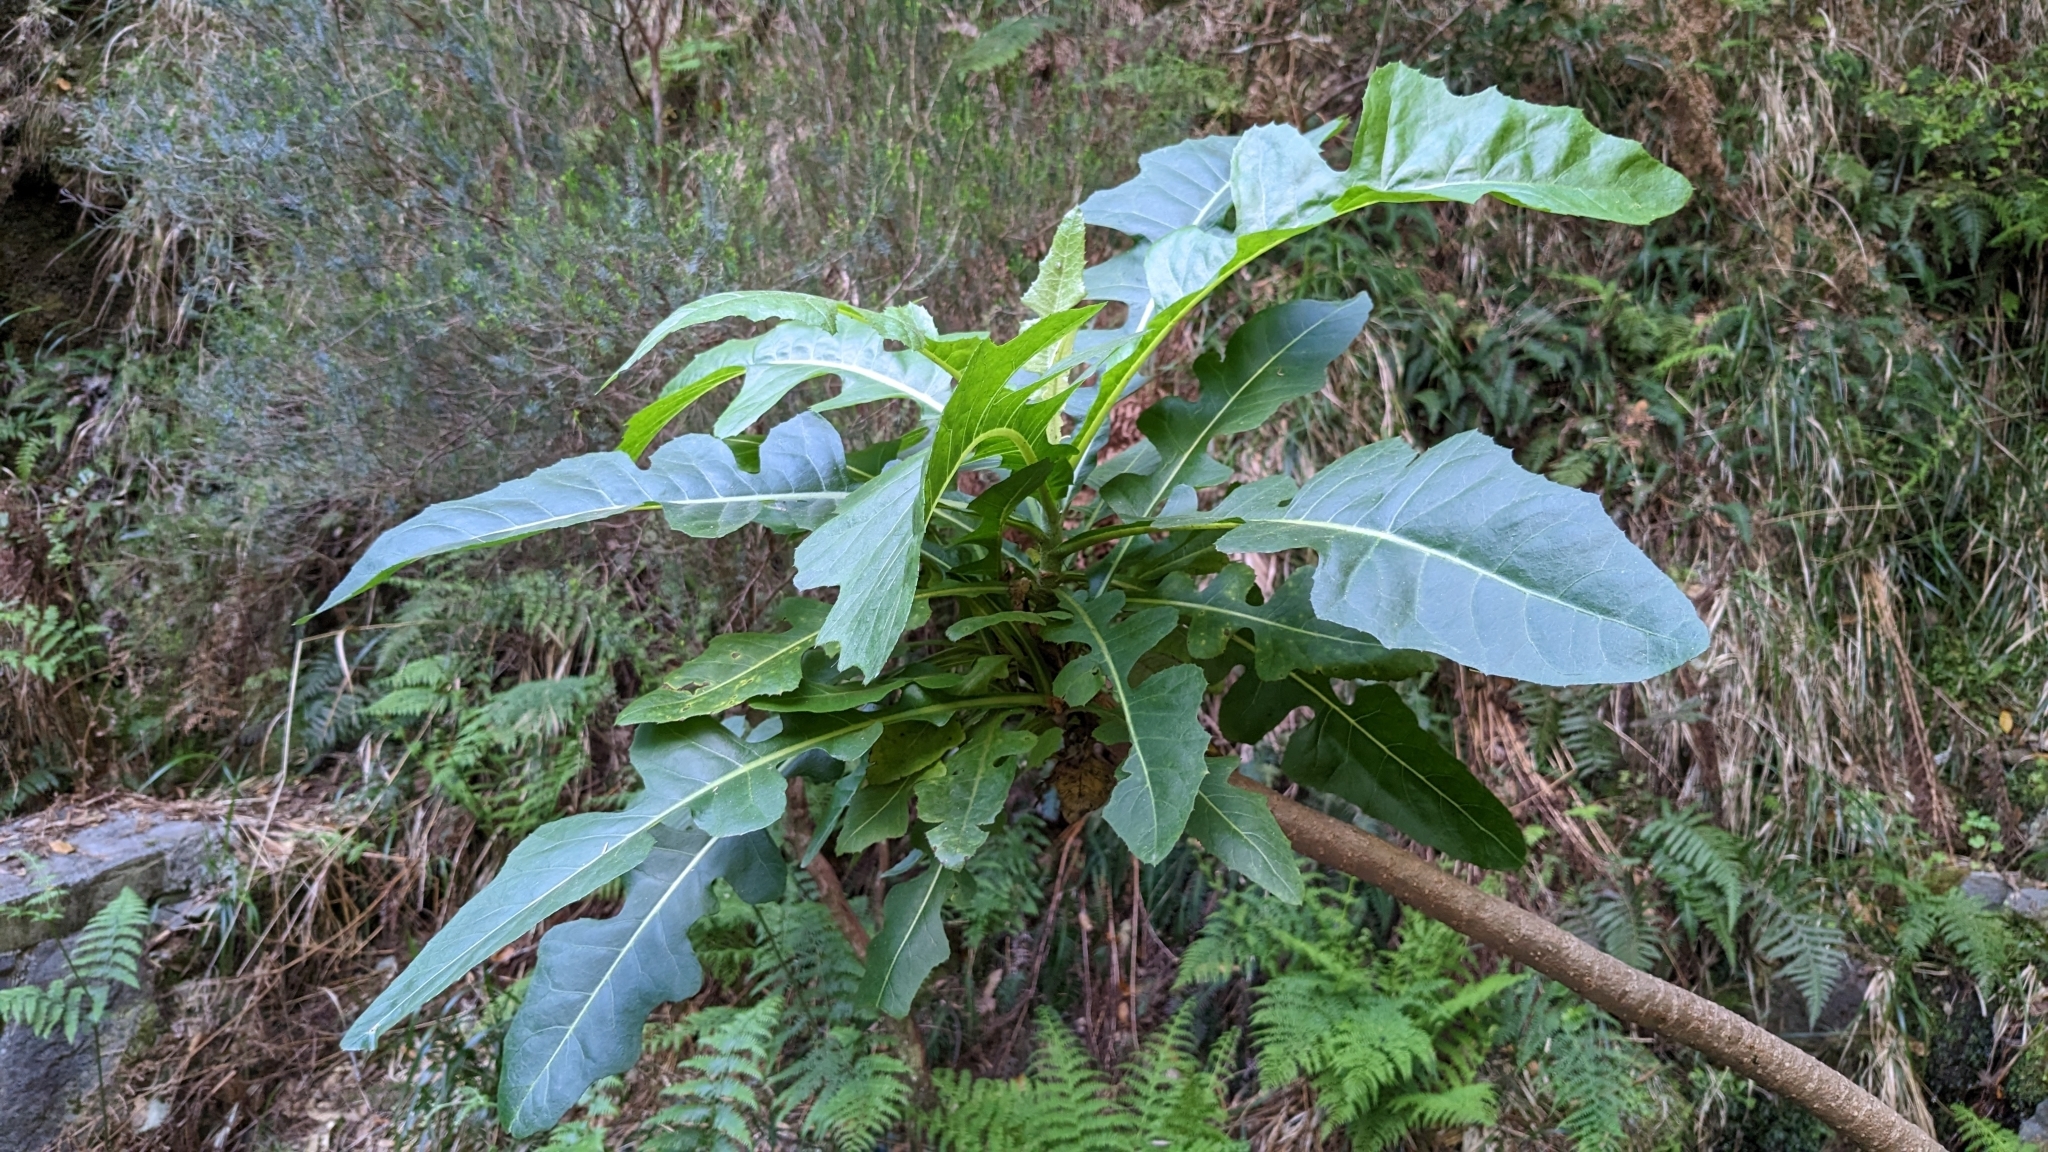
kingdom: Plantae
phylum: Tracheophyta
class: Magnoliopsida
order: Asterales
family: Asteraceae
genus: Sonchus
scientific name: Sonchus fruticosus
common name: Shrubby sow-thistle
